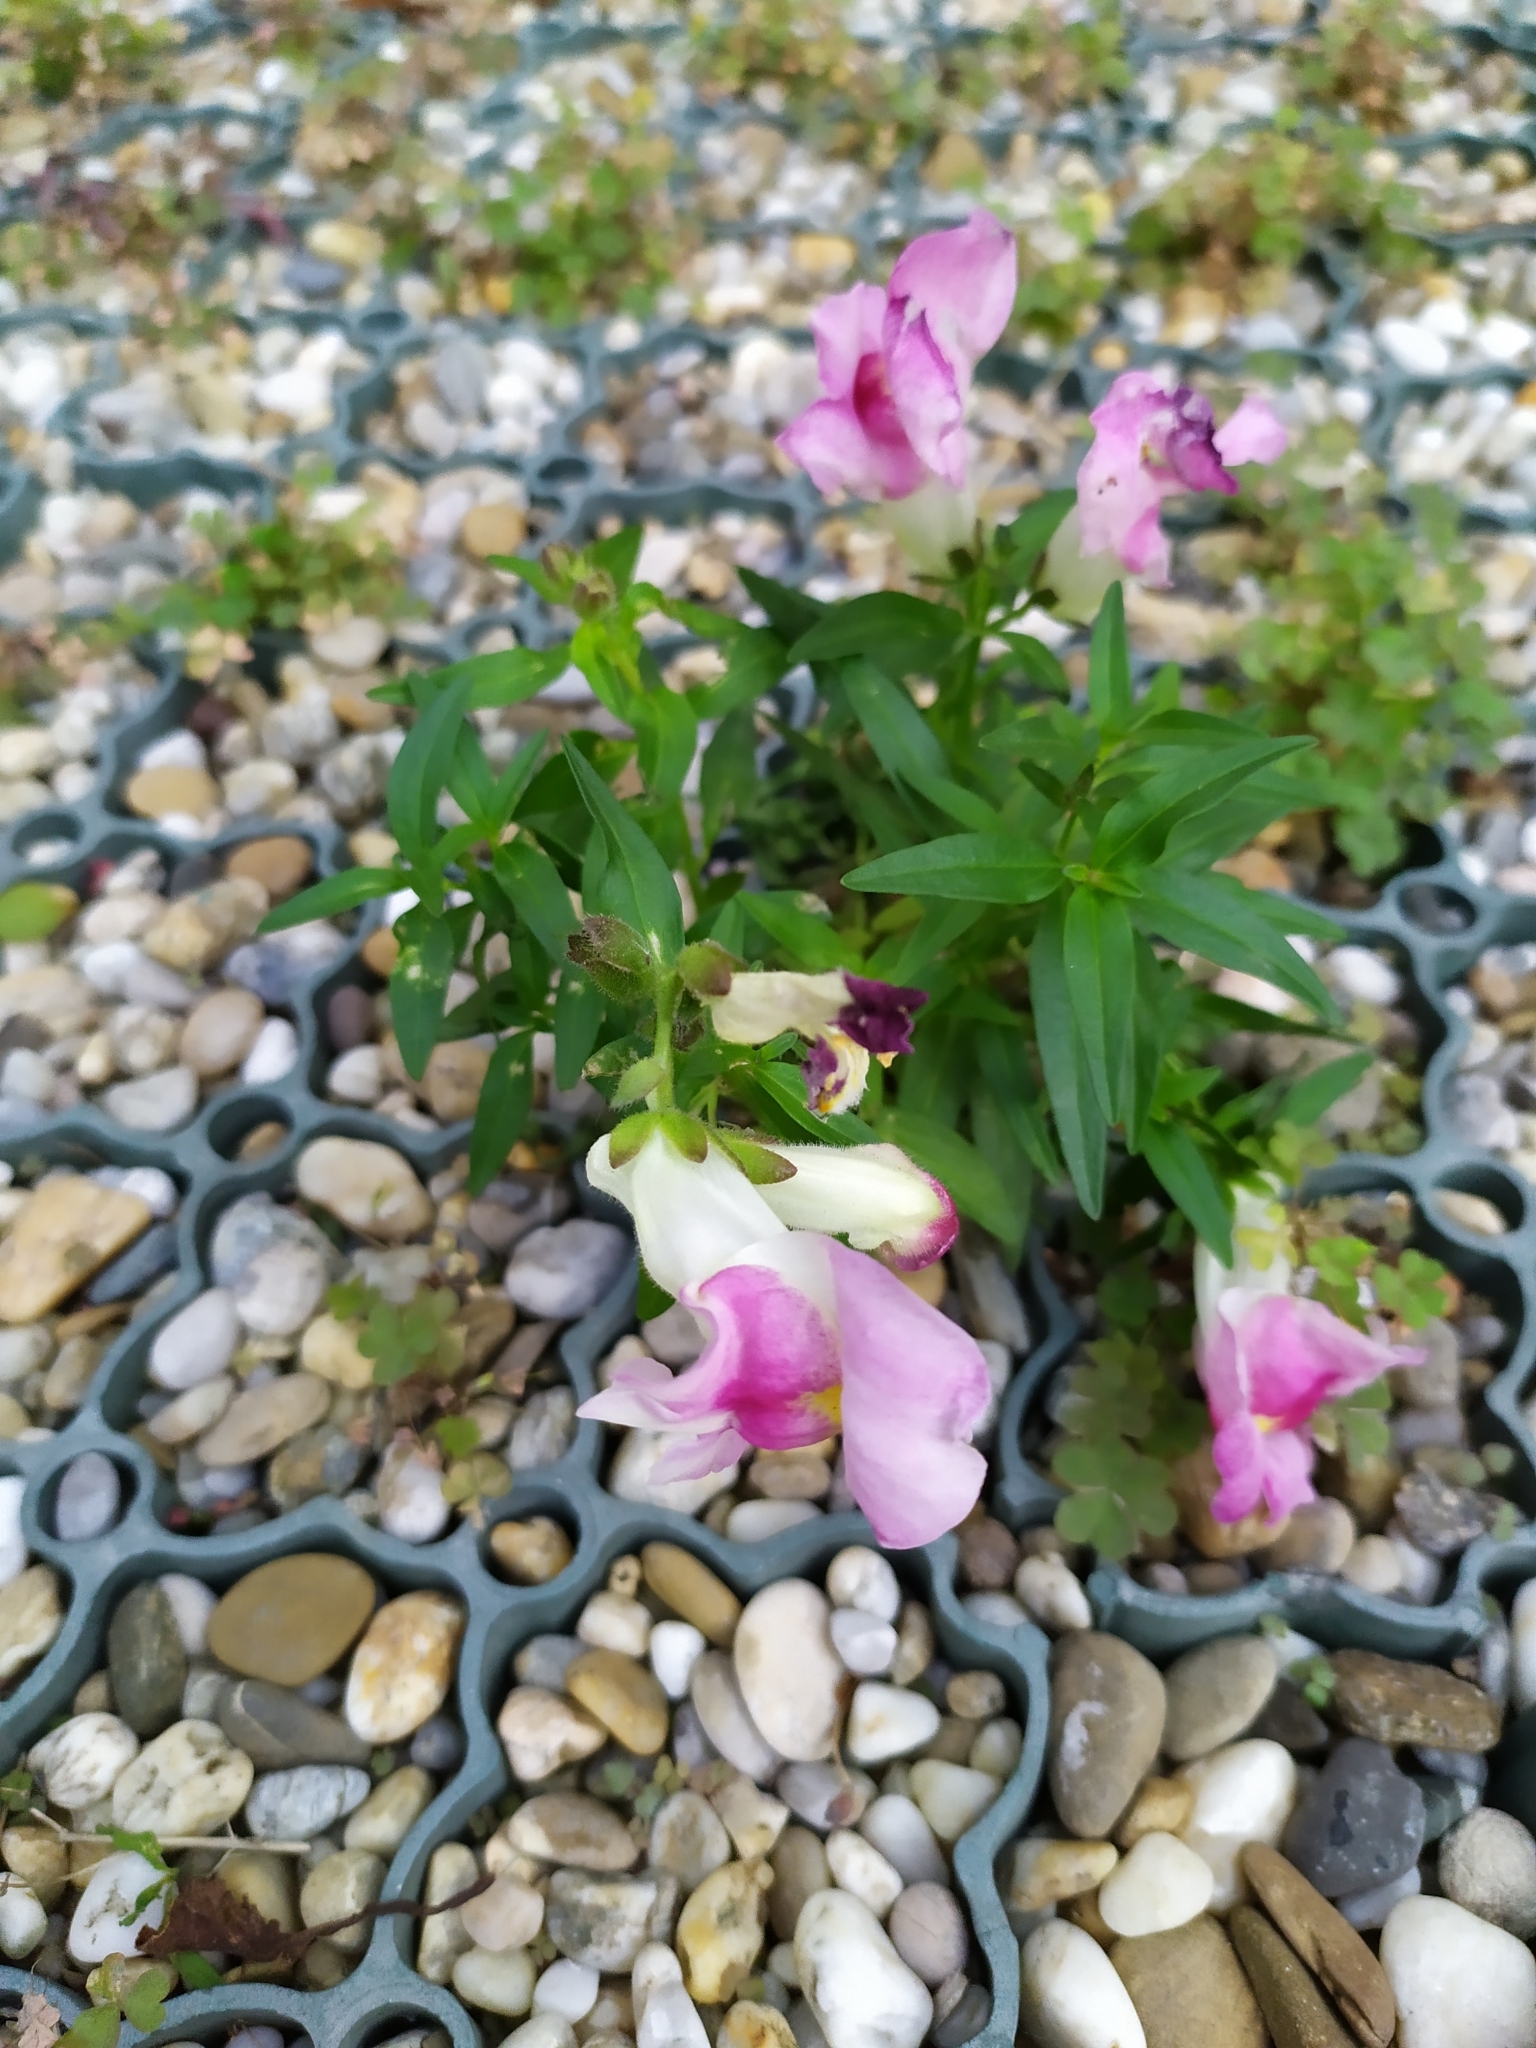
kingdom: Plantae
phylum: Tracheophyta
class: Magnoliopsida
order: Lamiales
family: Plantaginaceae
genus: Antirrhinum
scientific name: Antirrhinum majus
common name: Snapdragon
